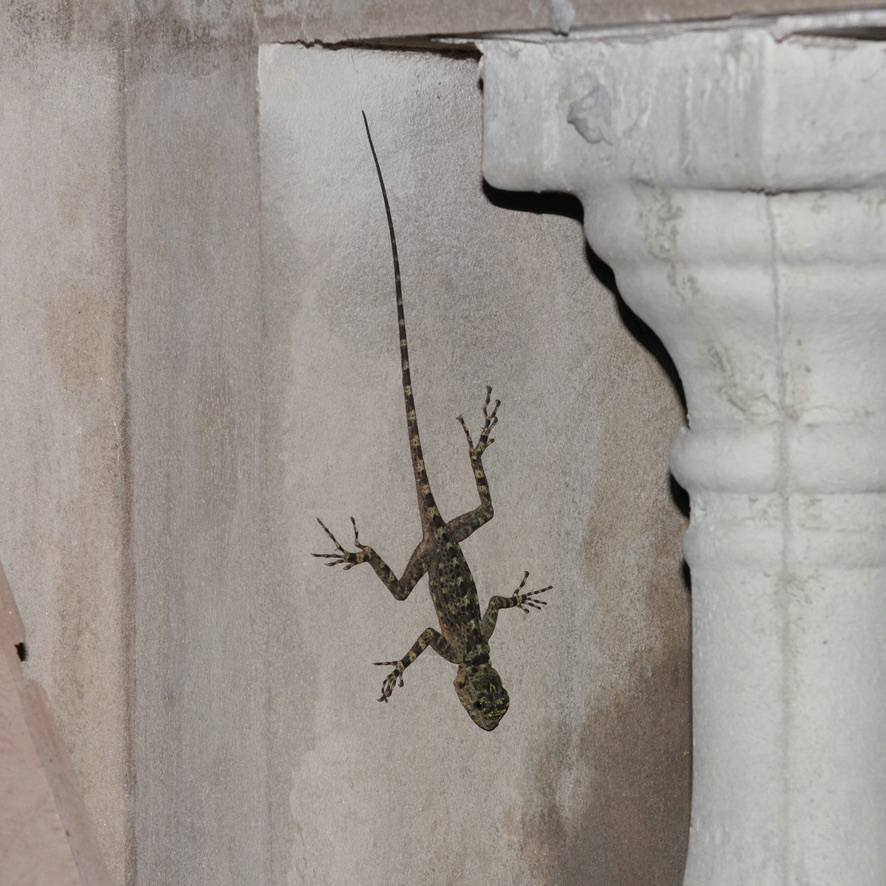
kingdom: Animalia
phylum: Chordata
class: Squamata
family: Tropiduridae
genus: Plica
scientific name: Plica caribeana
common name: Caribbean treerunner
